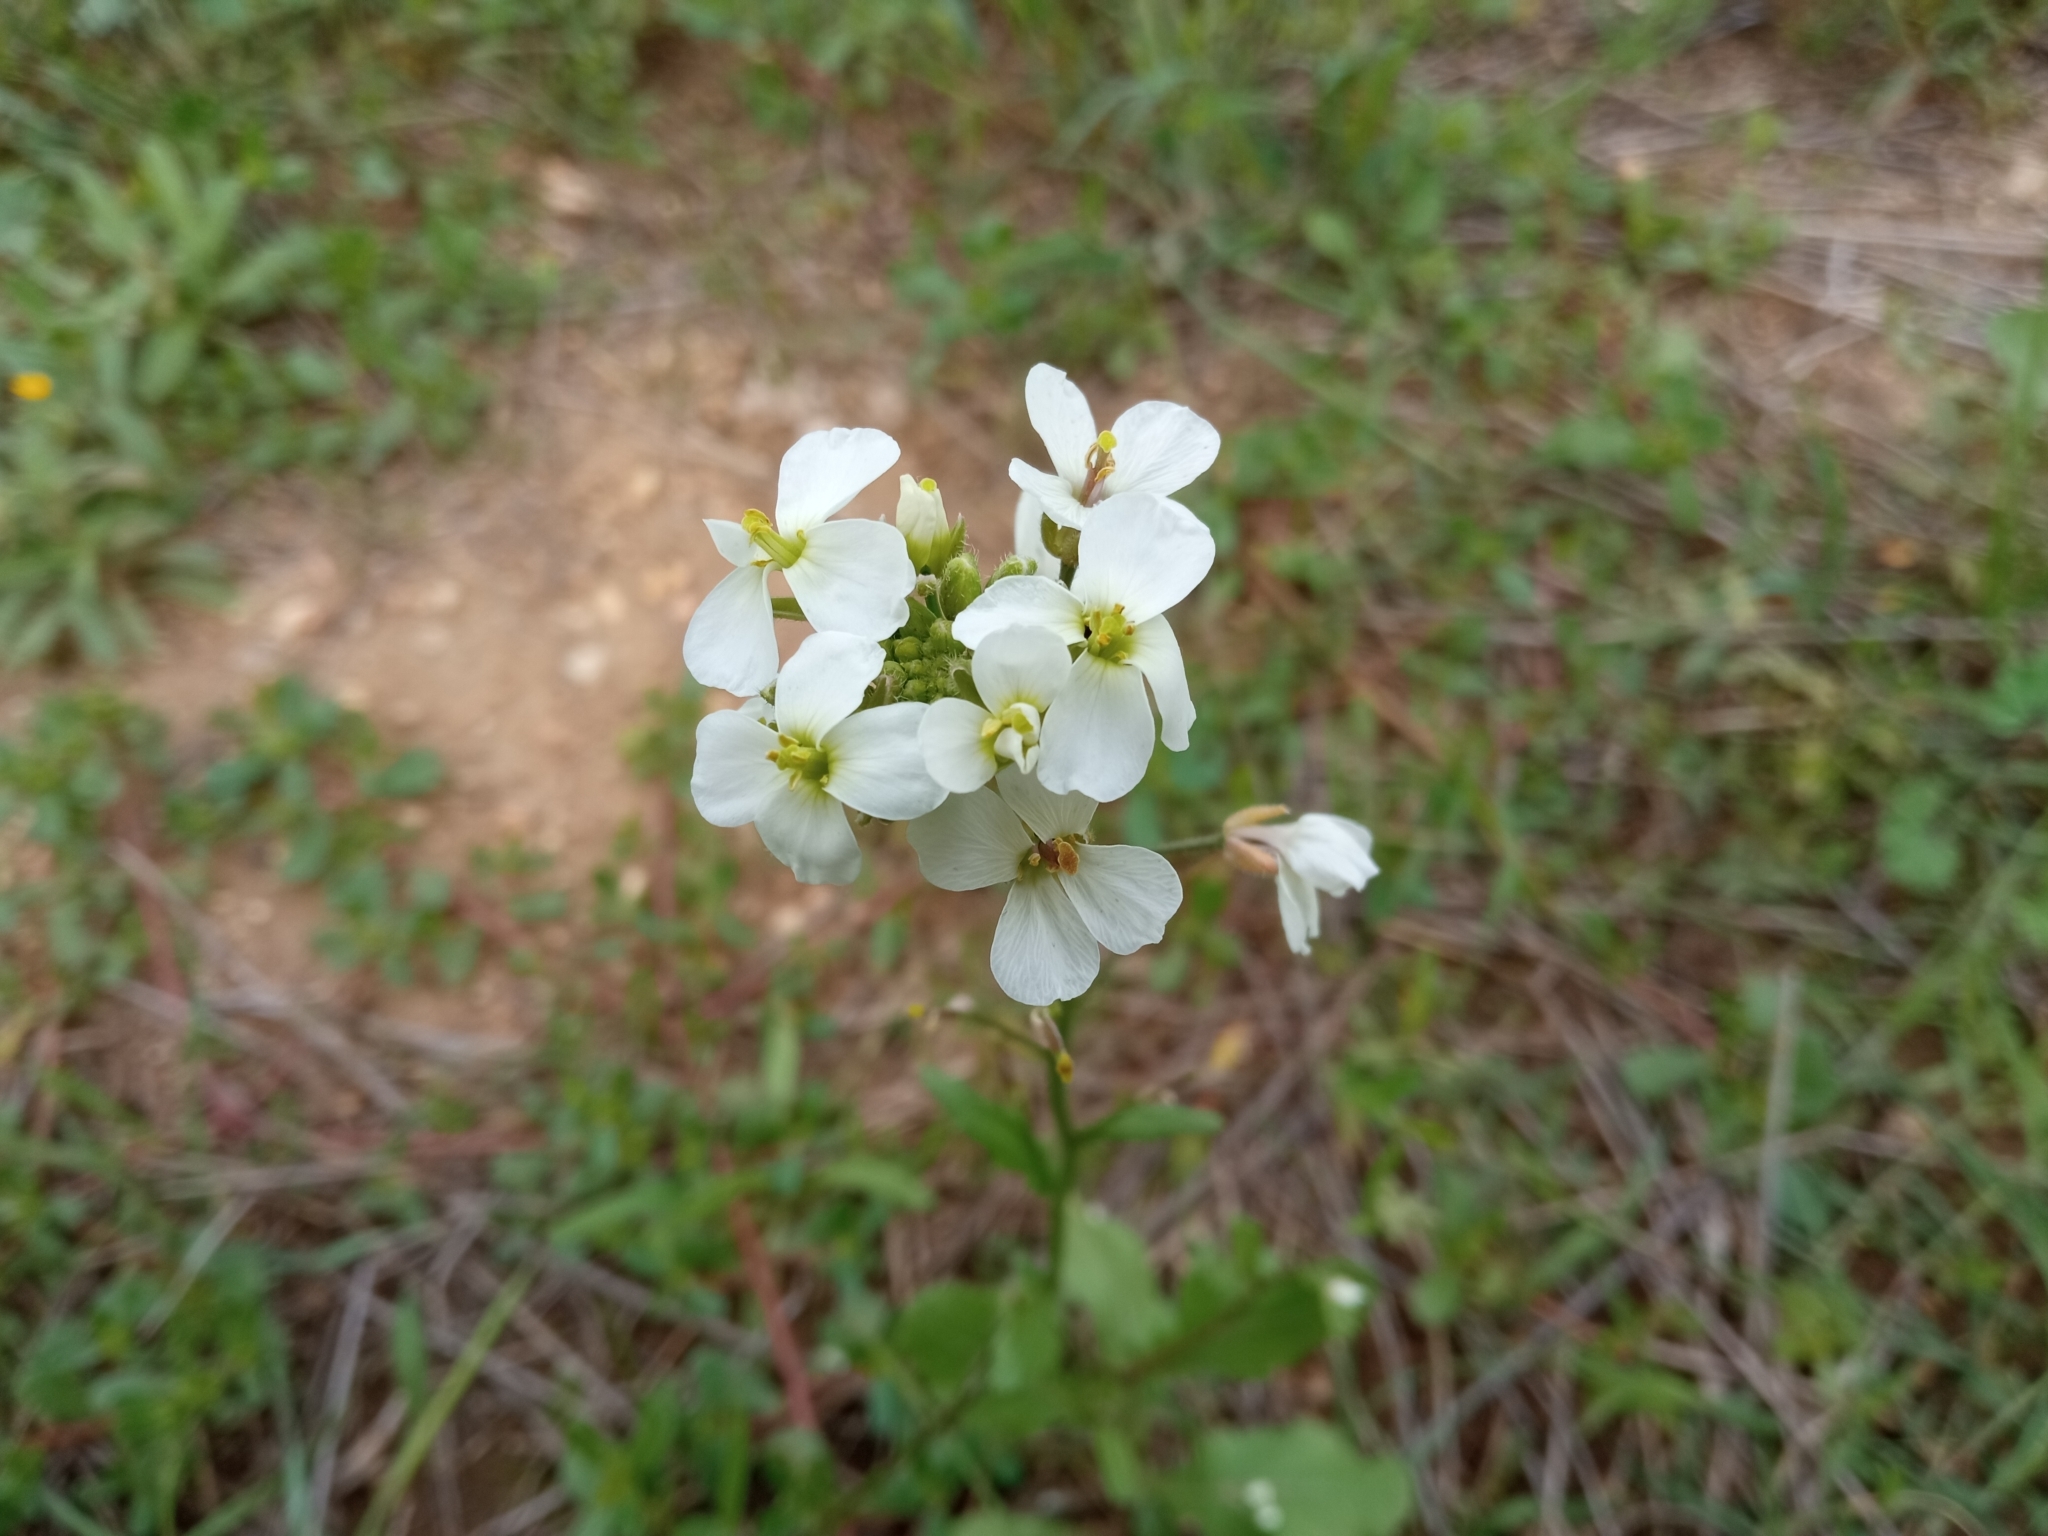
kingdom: Plantae
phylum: Tracheophyta
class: Magnoliopsida
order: Brassicales
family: Brassicaceae
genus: Diplotaxis
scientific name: Diplotaxis erucoides
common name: White rocket
